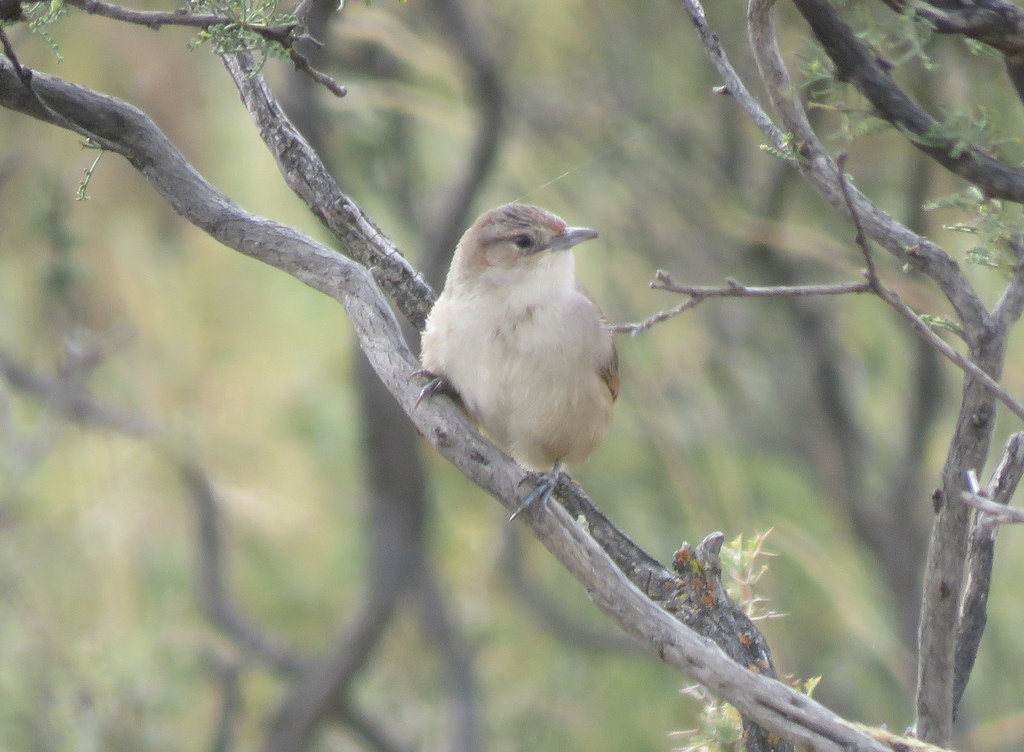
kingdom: Animalia
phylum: Chordata
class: Aves
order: Passeriformes
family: Furnariidae
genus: Phacellodomus
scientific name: Phacellodomus striaticeps
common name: Streak-fronted thornbird
